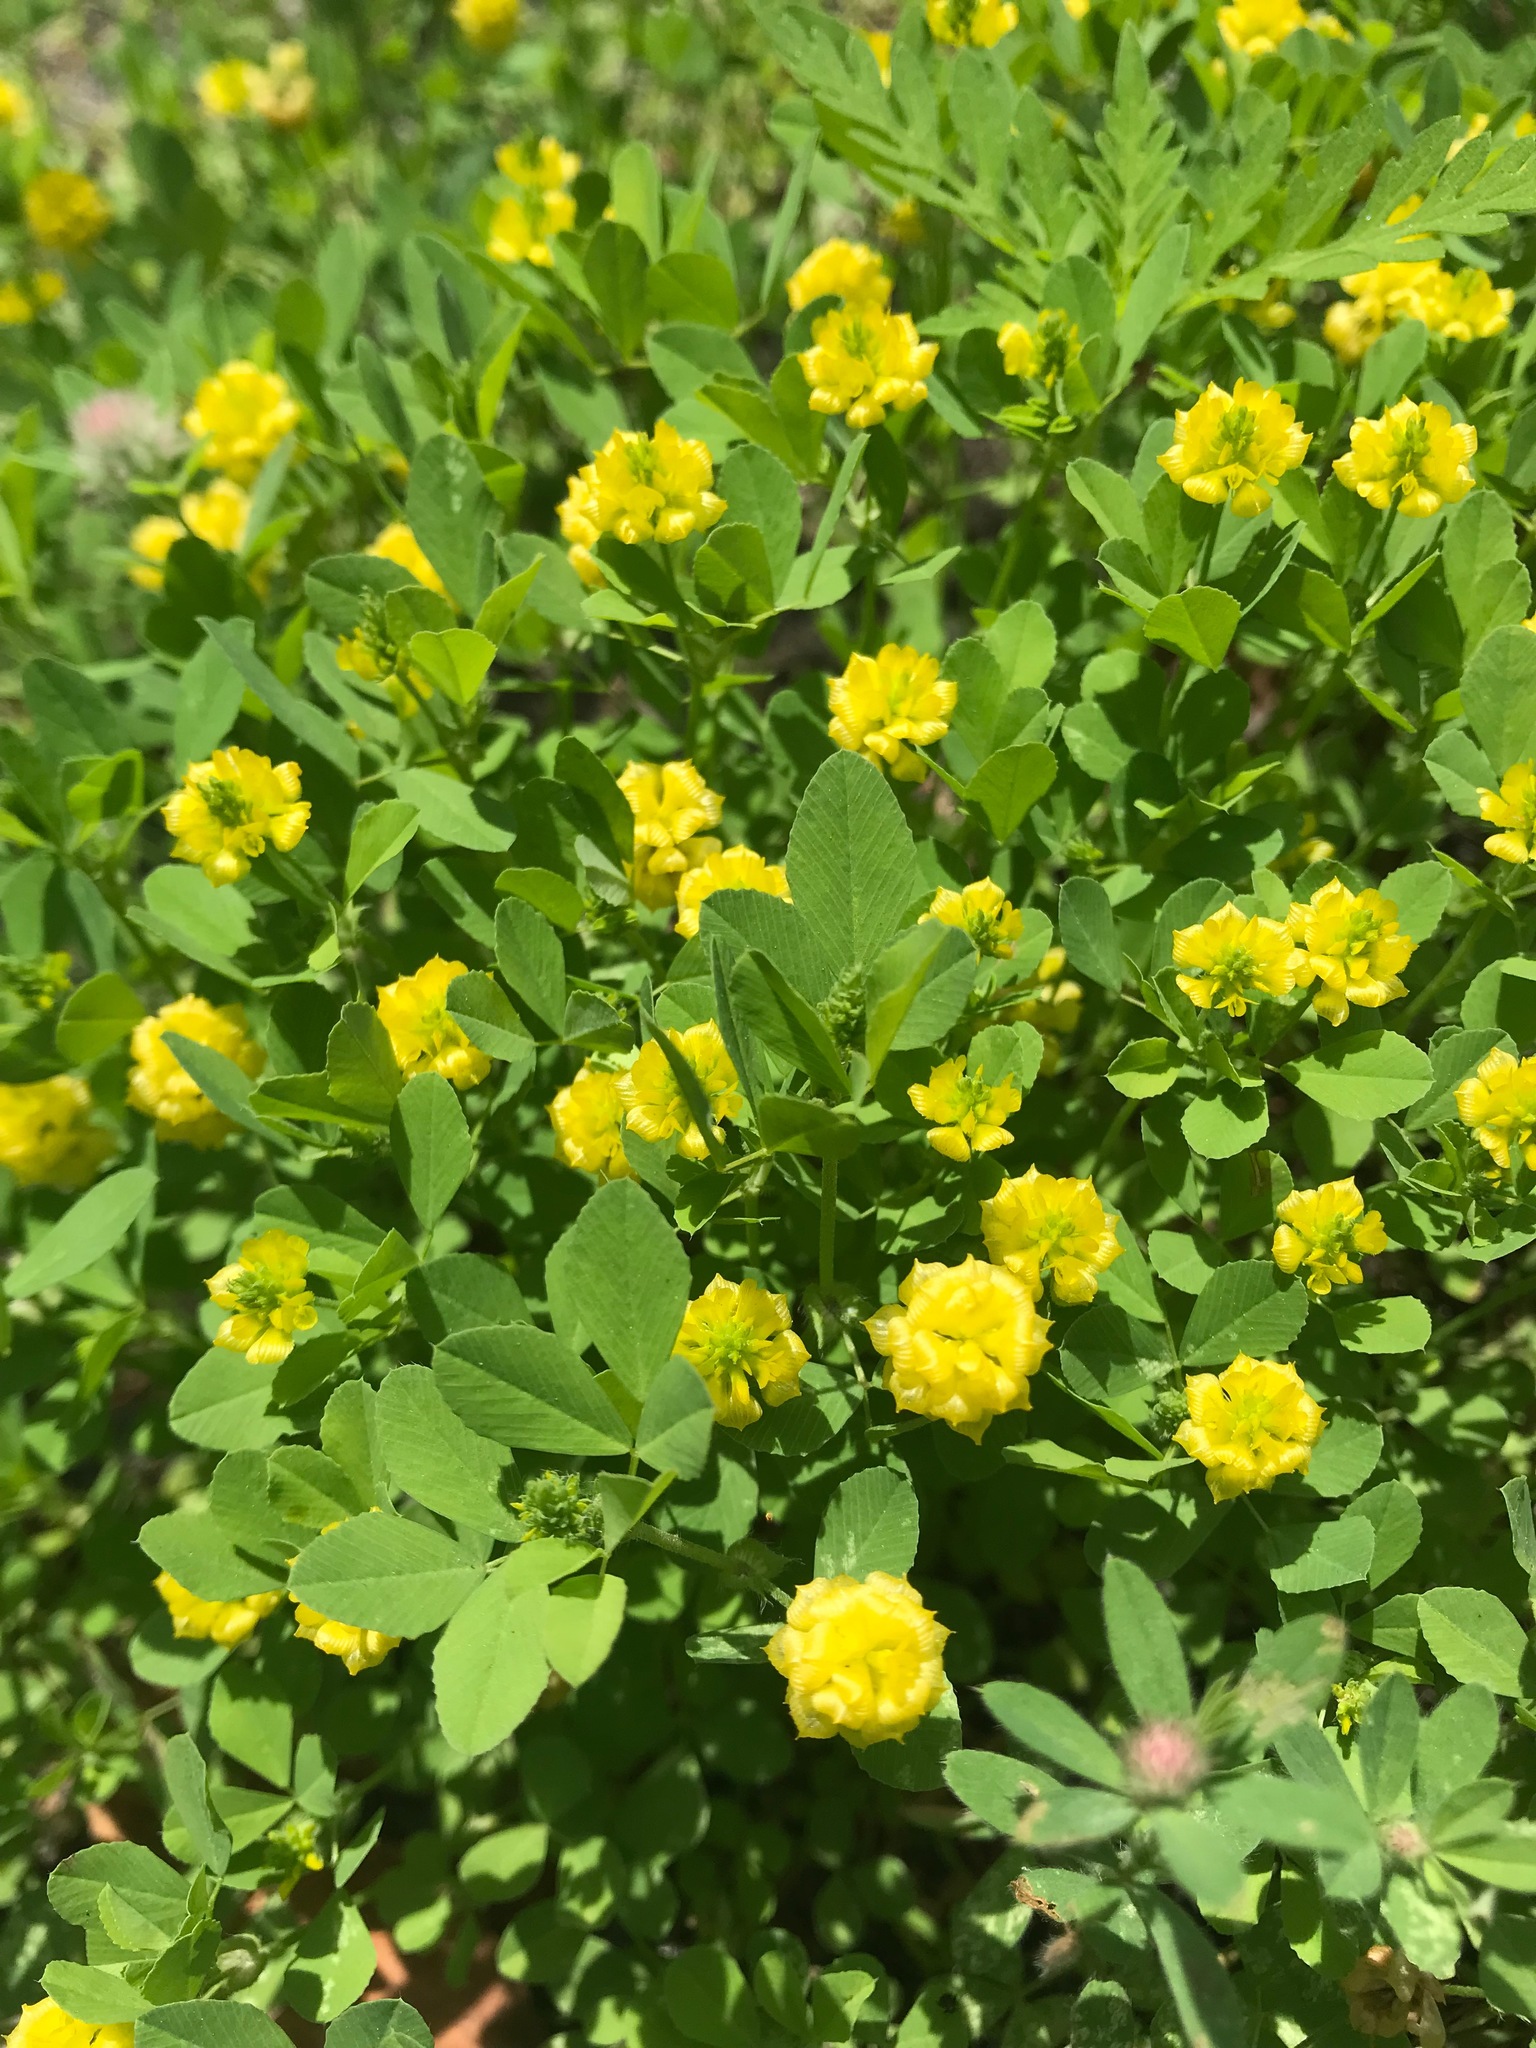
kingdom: Plantae
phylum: Tracheophyta
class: Magnoliopsida
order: Fabales
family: Fabaceae
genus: Trifolium
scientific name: Trifolium campestre
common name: Field clover
